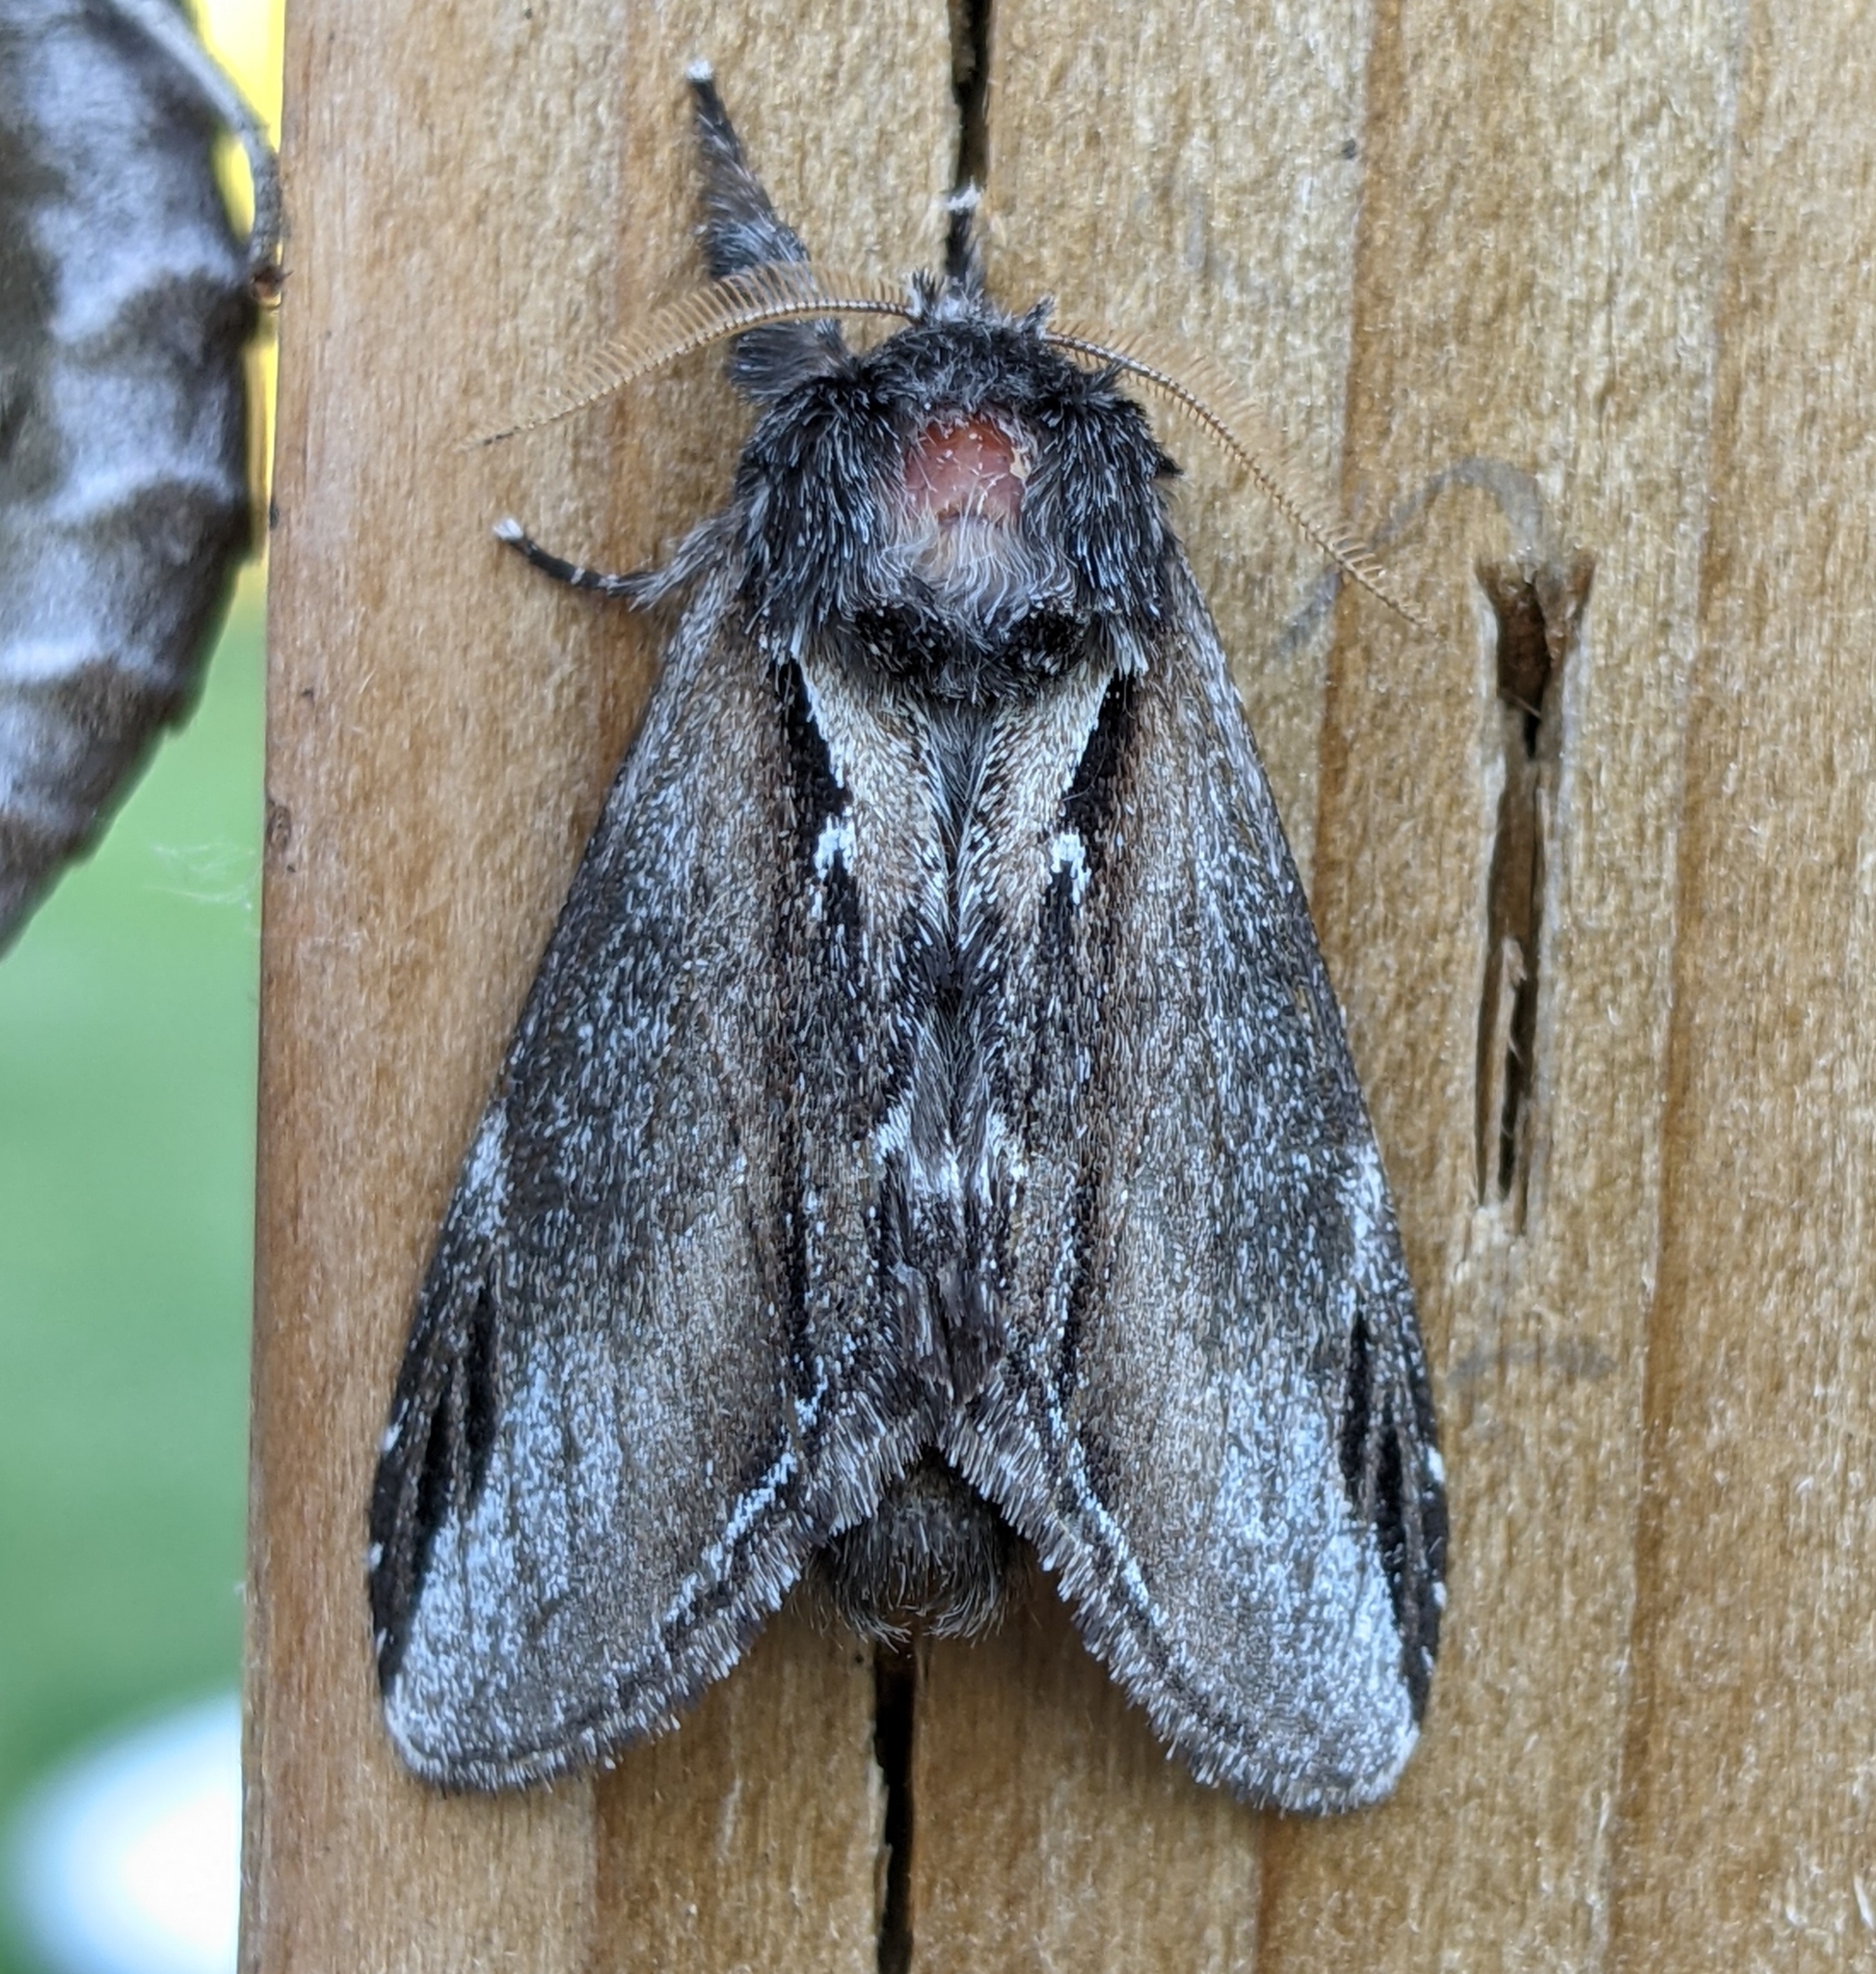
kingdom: Animalia
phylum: Arthropoda
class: Insecta
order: Lepidoptera
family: Notodontidae
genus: Pheosia
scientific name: Pheosia rimosa
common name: Black-rimmed prominent
